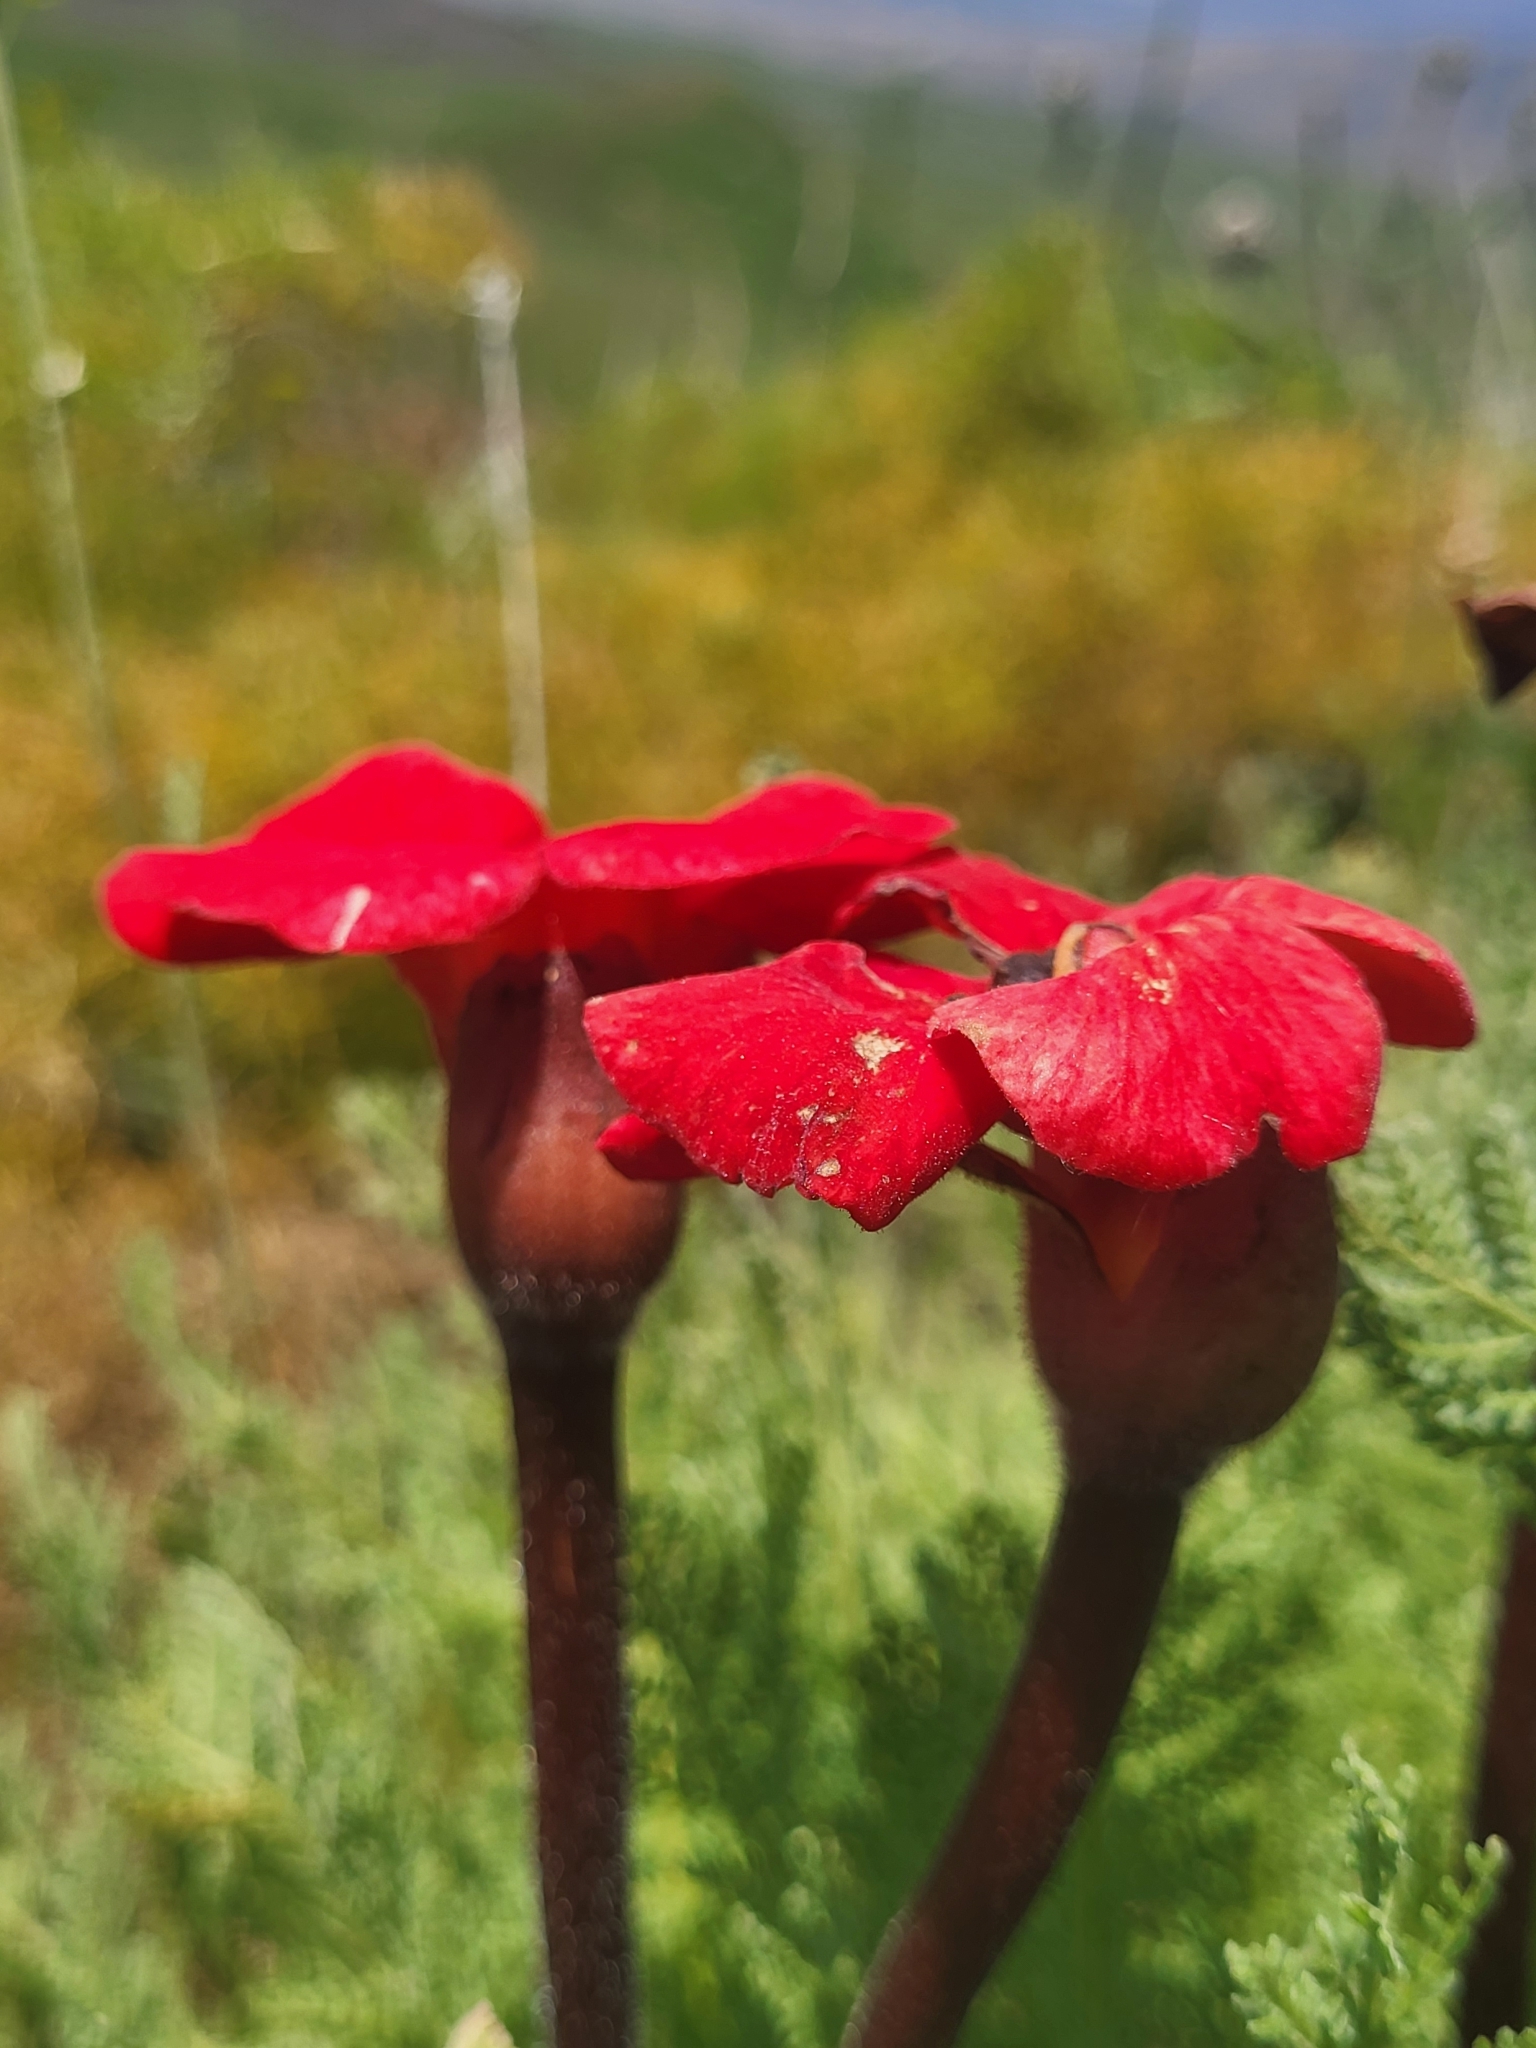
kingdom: Plantae
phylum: Tracheophyta
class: Magnoliopsida
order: Lamiales
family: Orobanchaceae
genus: Diphelypaea
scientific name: Diphelypaea coccinea
